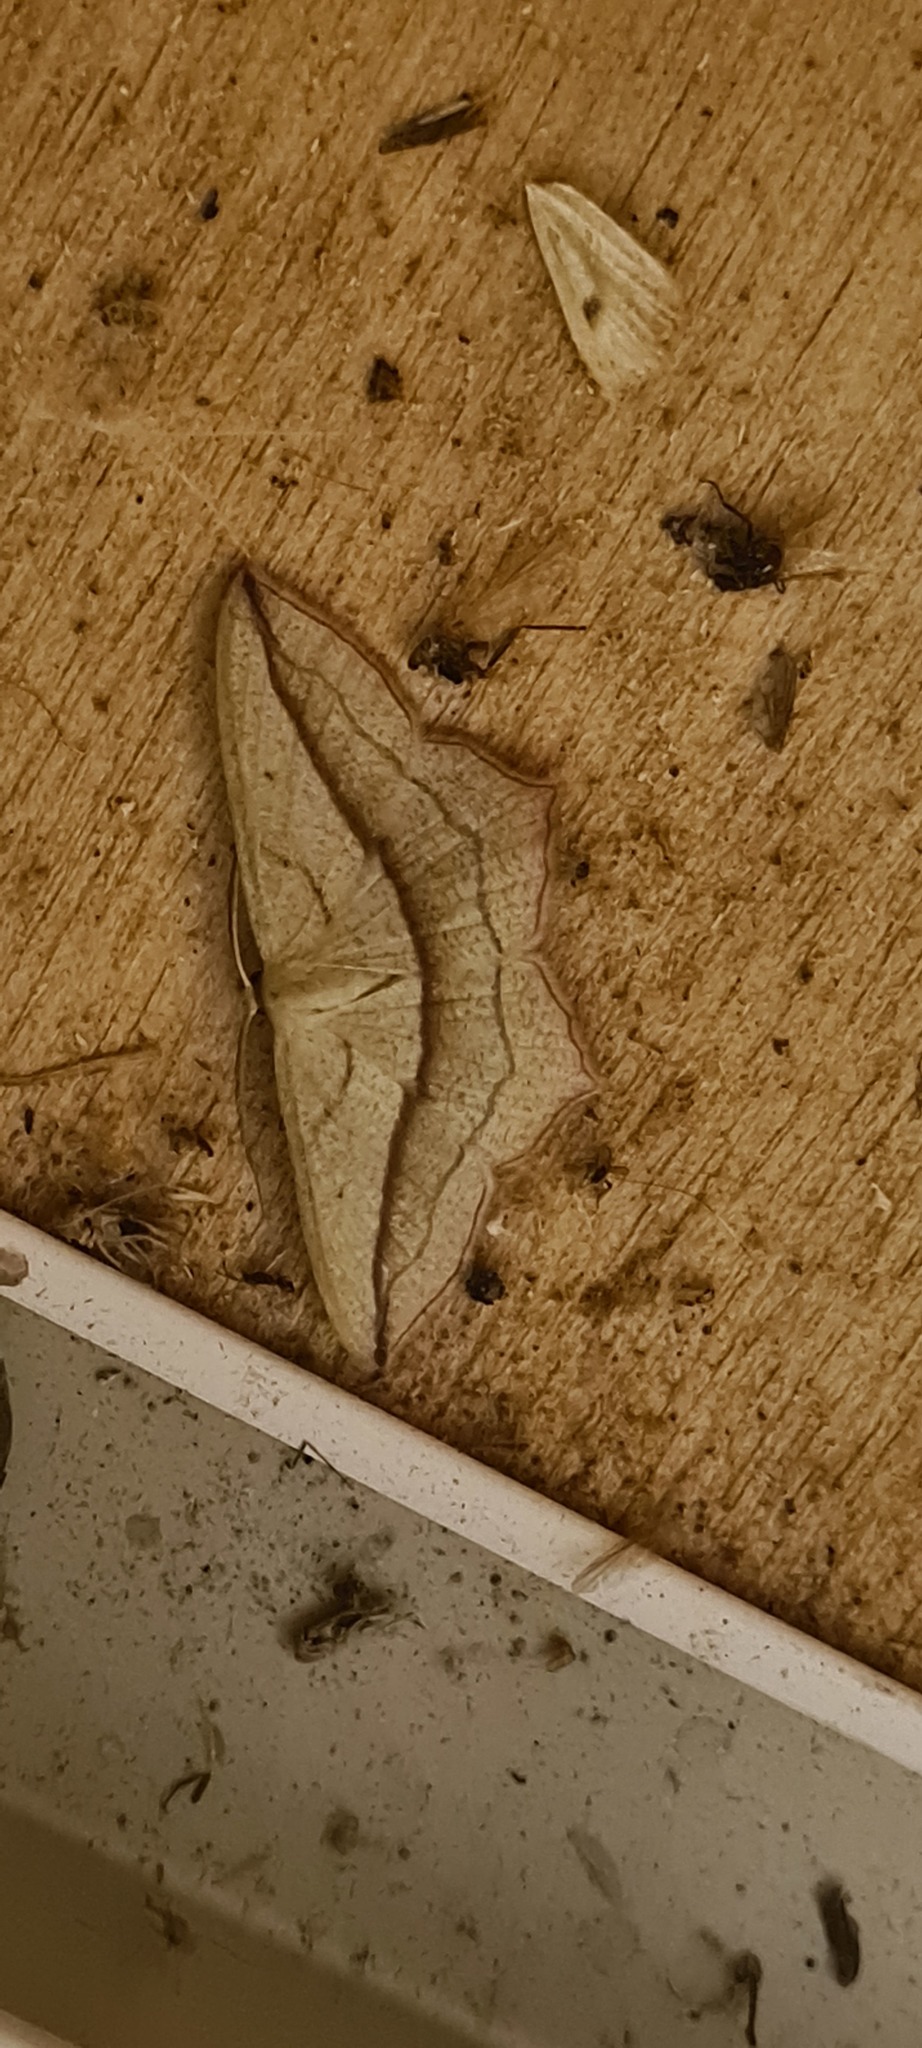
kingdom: Animalia
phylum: Arthropoda
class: Insecta
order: Lepidoptera
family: Geometridae
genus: Timandra
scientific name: Timandra comae
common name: Blood-vein
